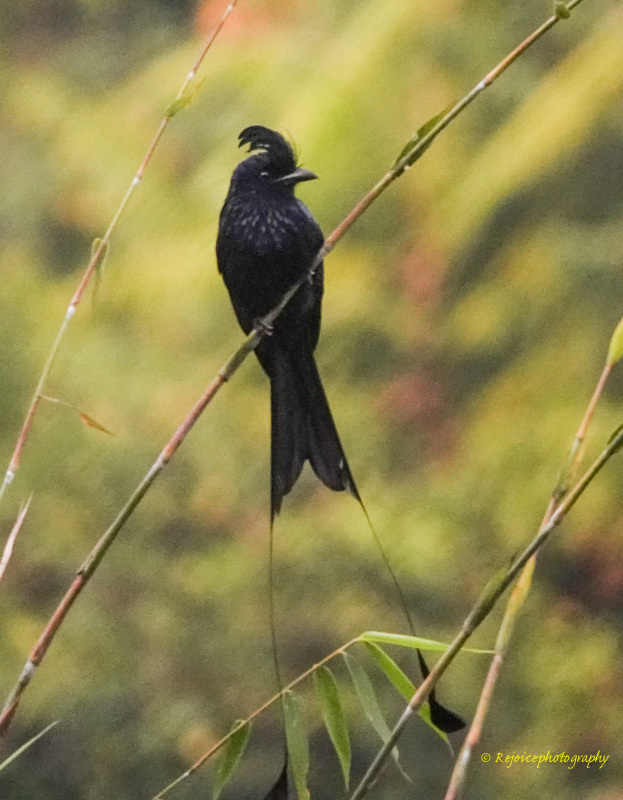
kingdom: Animalia
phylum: Chordata
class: Aves
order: Passeriformes
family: Dicruridae
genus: Dicrurus
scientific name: Dicrurus paradiseus
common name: Greater racket-tailed drongo
